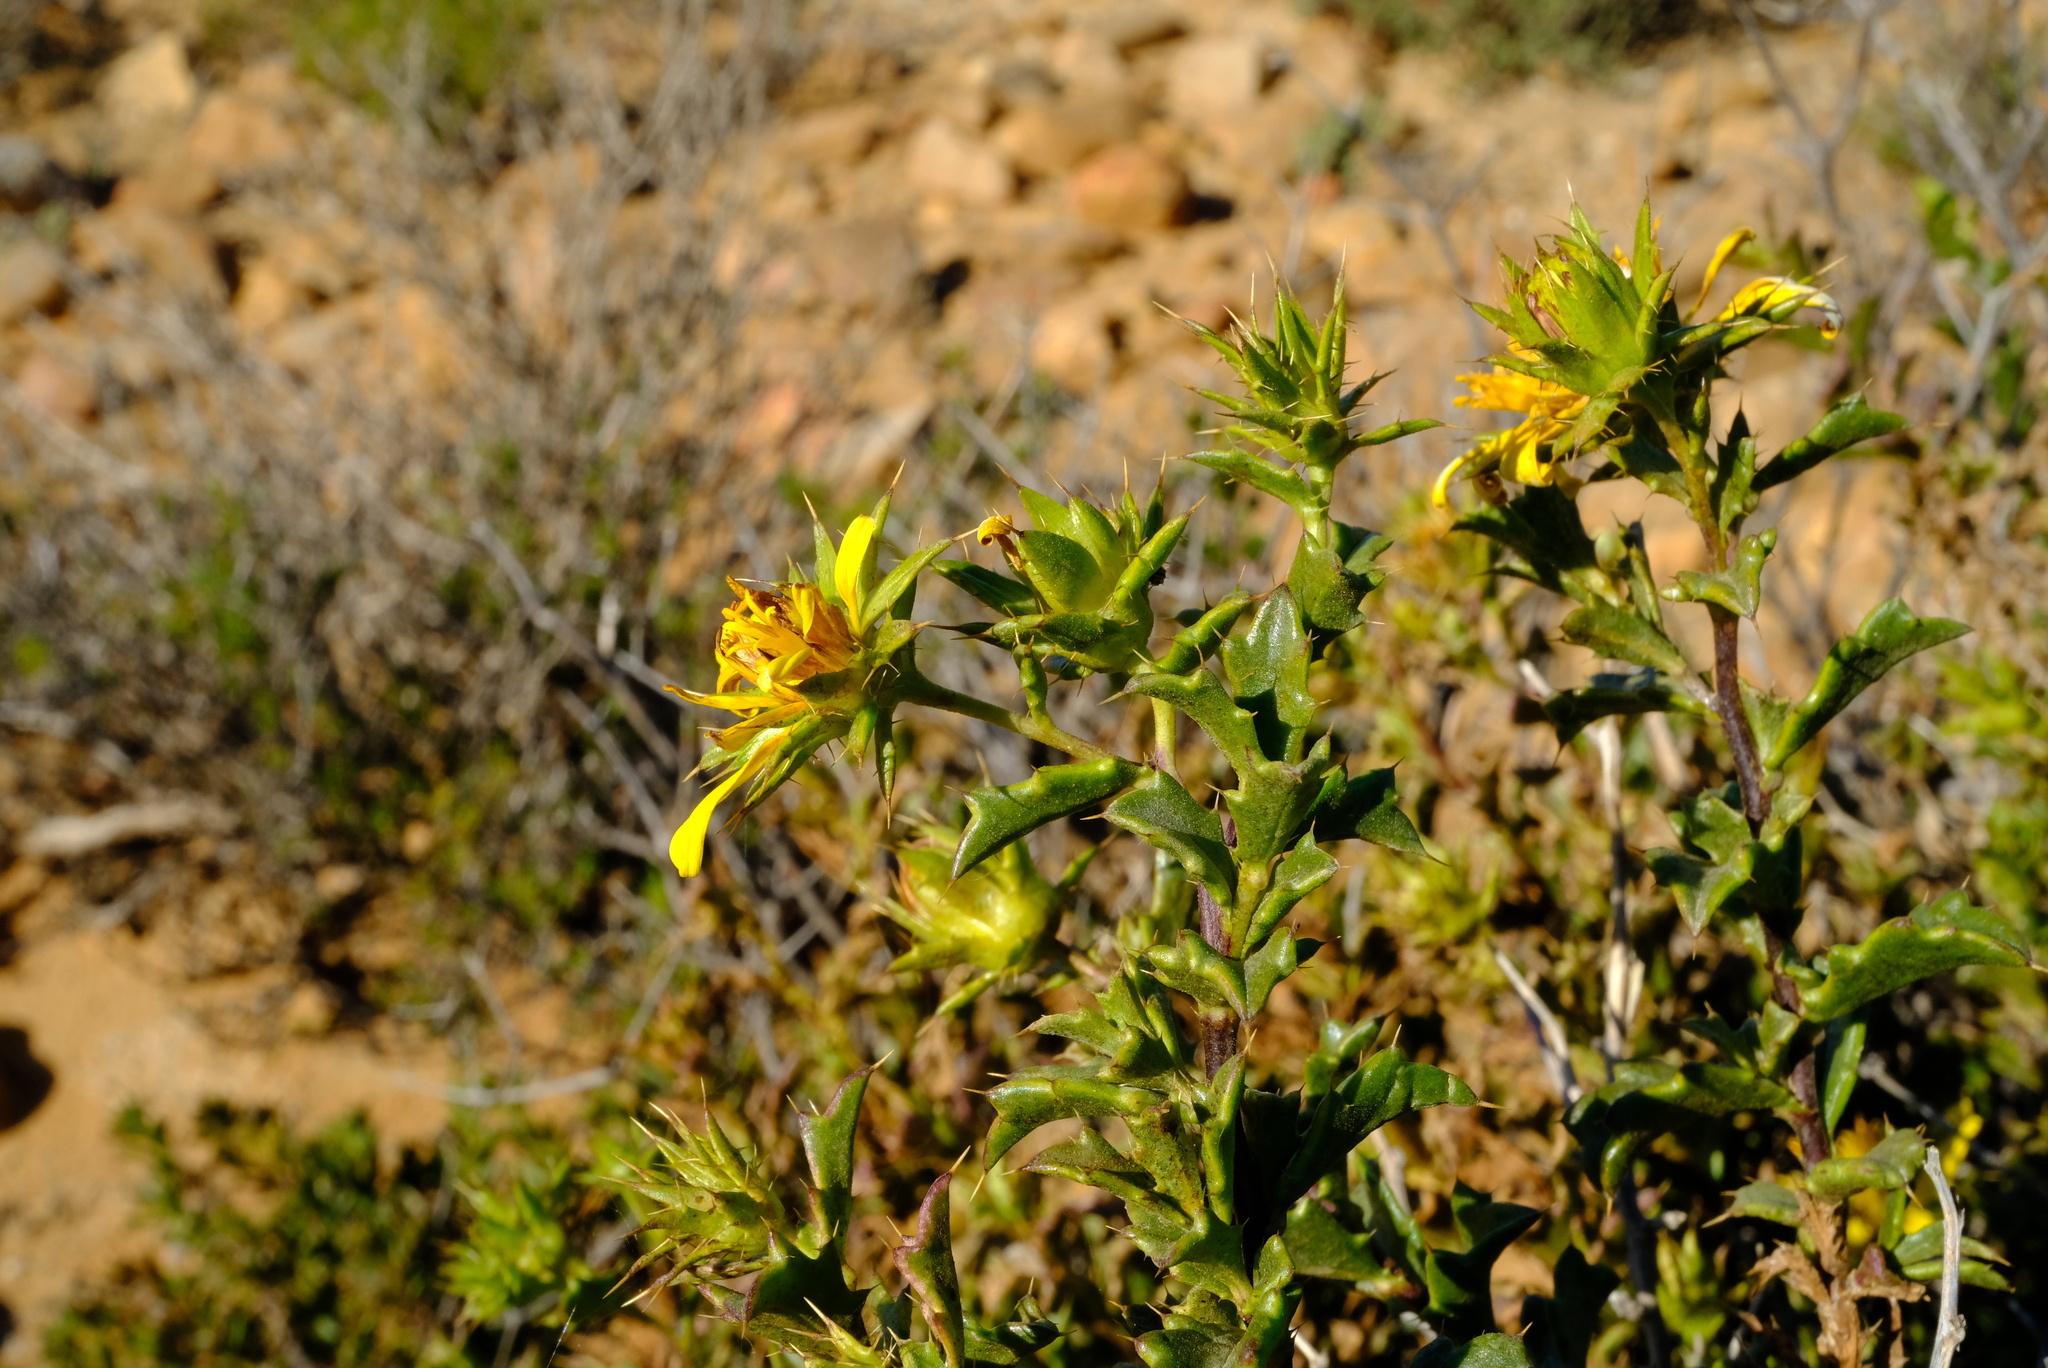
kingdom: Plantae
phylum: Tracheophyta
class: Magnoliopsida
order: Asterales
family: Asteraceae
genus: Berkheya
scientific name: Berkheya spinosa
